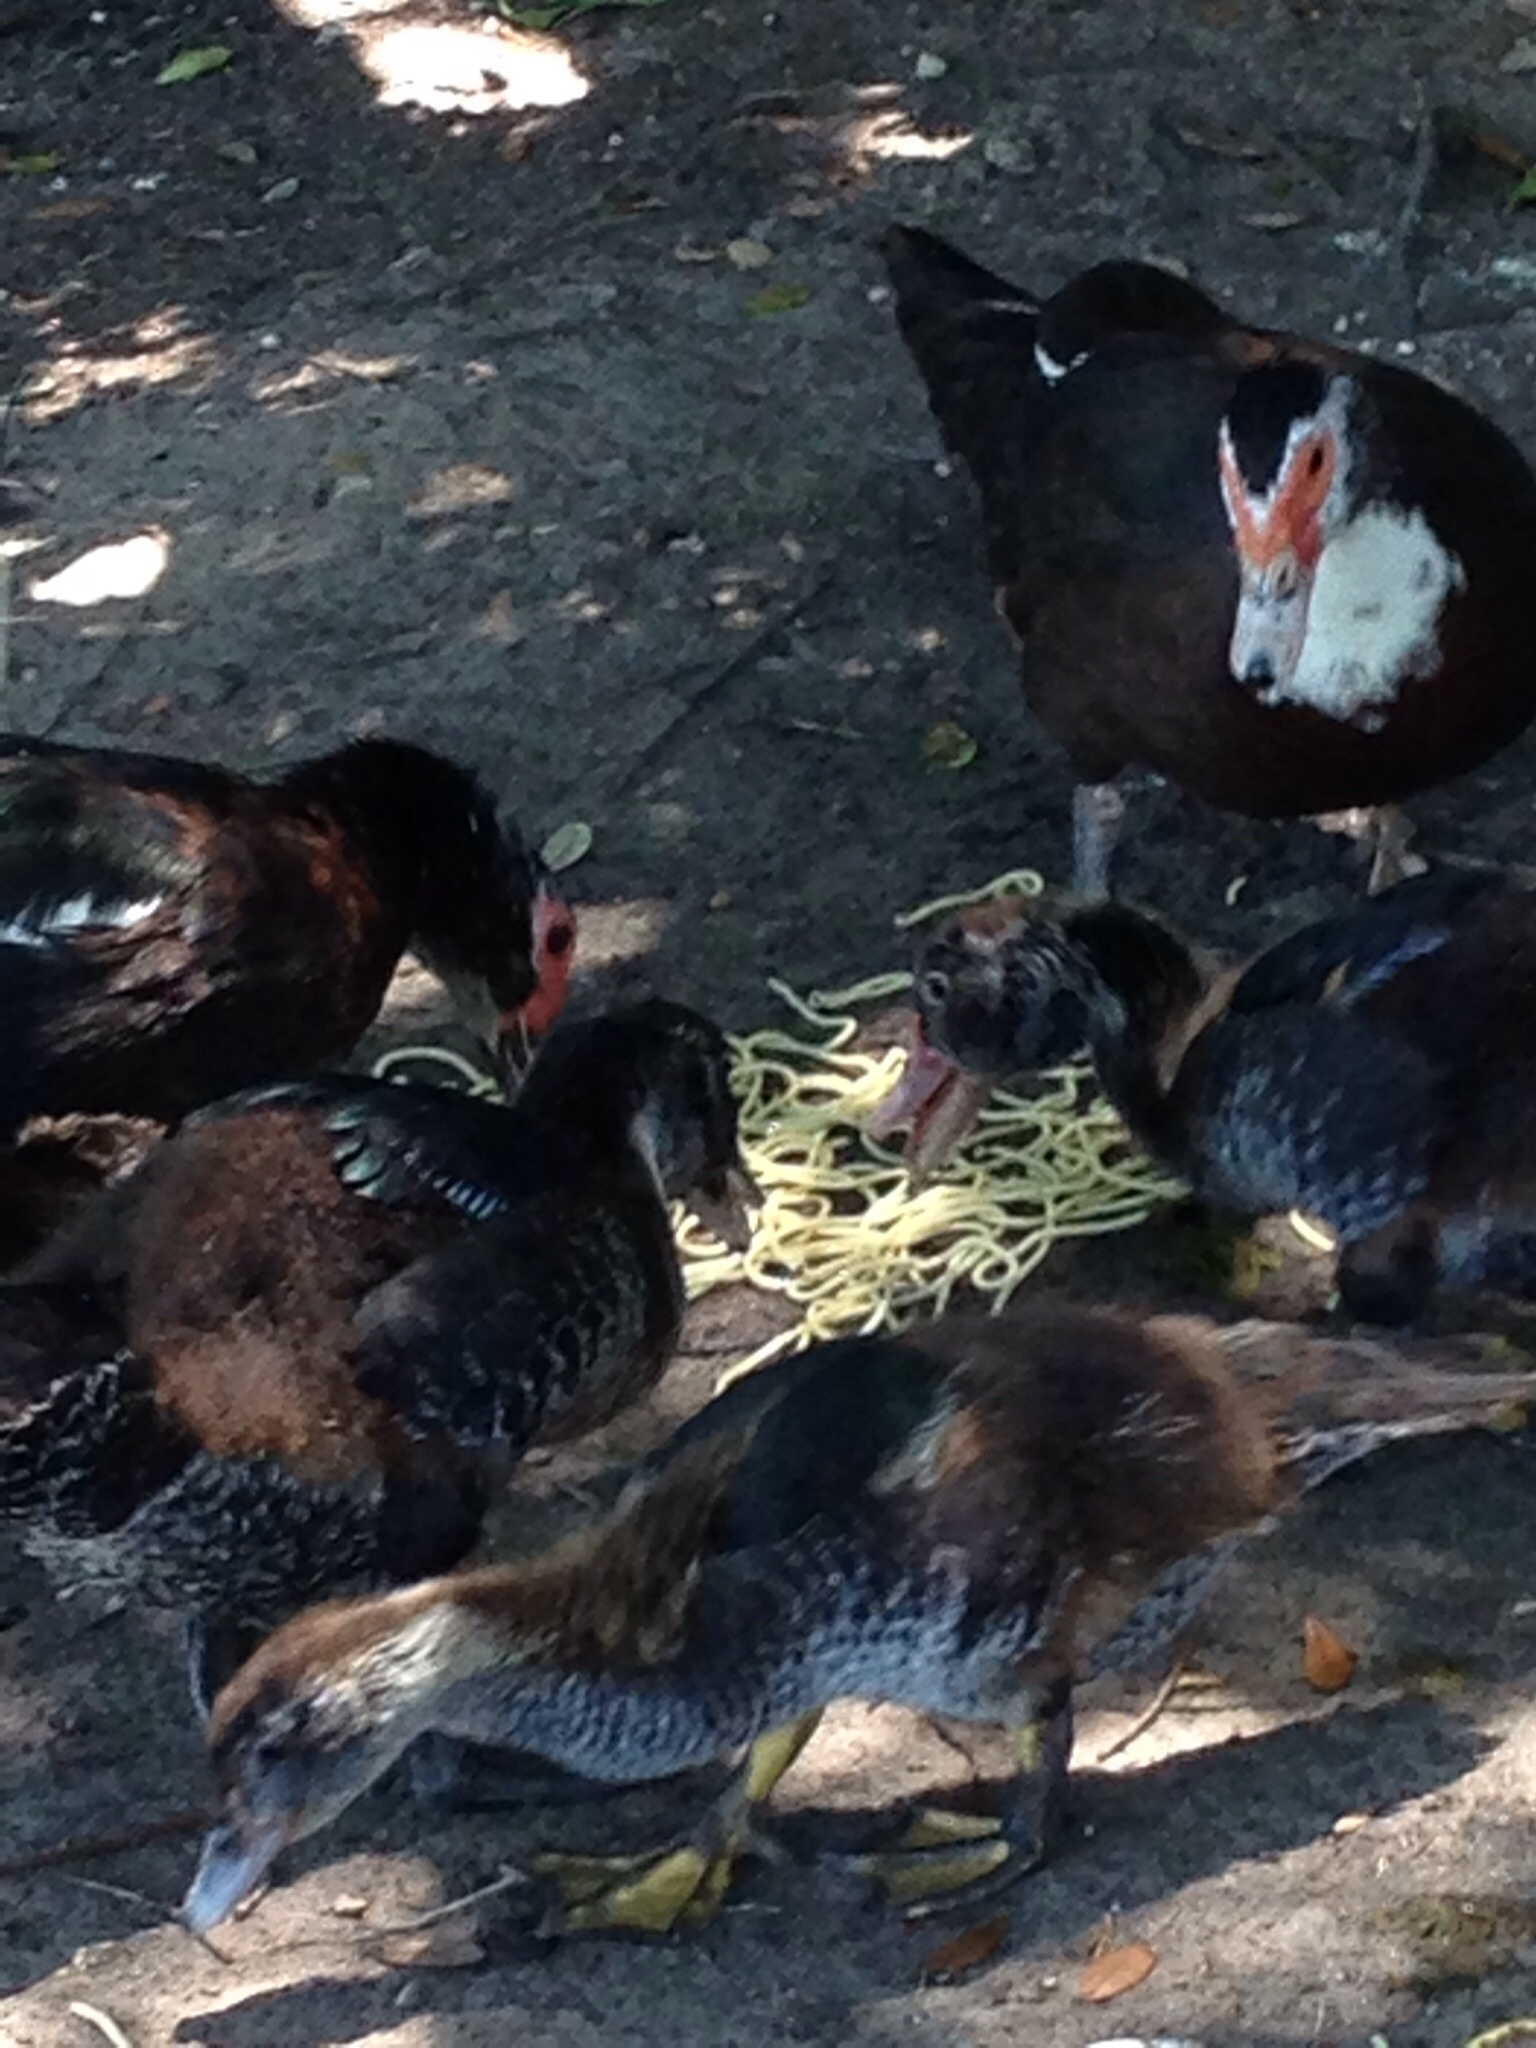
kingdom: Animalia
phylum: Chordata
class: Aves
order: Anseriformes
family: Anatidae
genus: Cairina
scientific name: Cairina moschata
